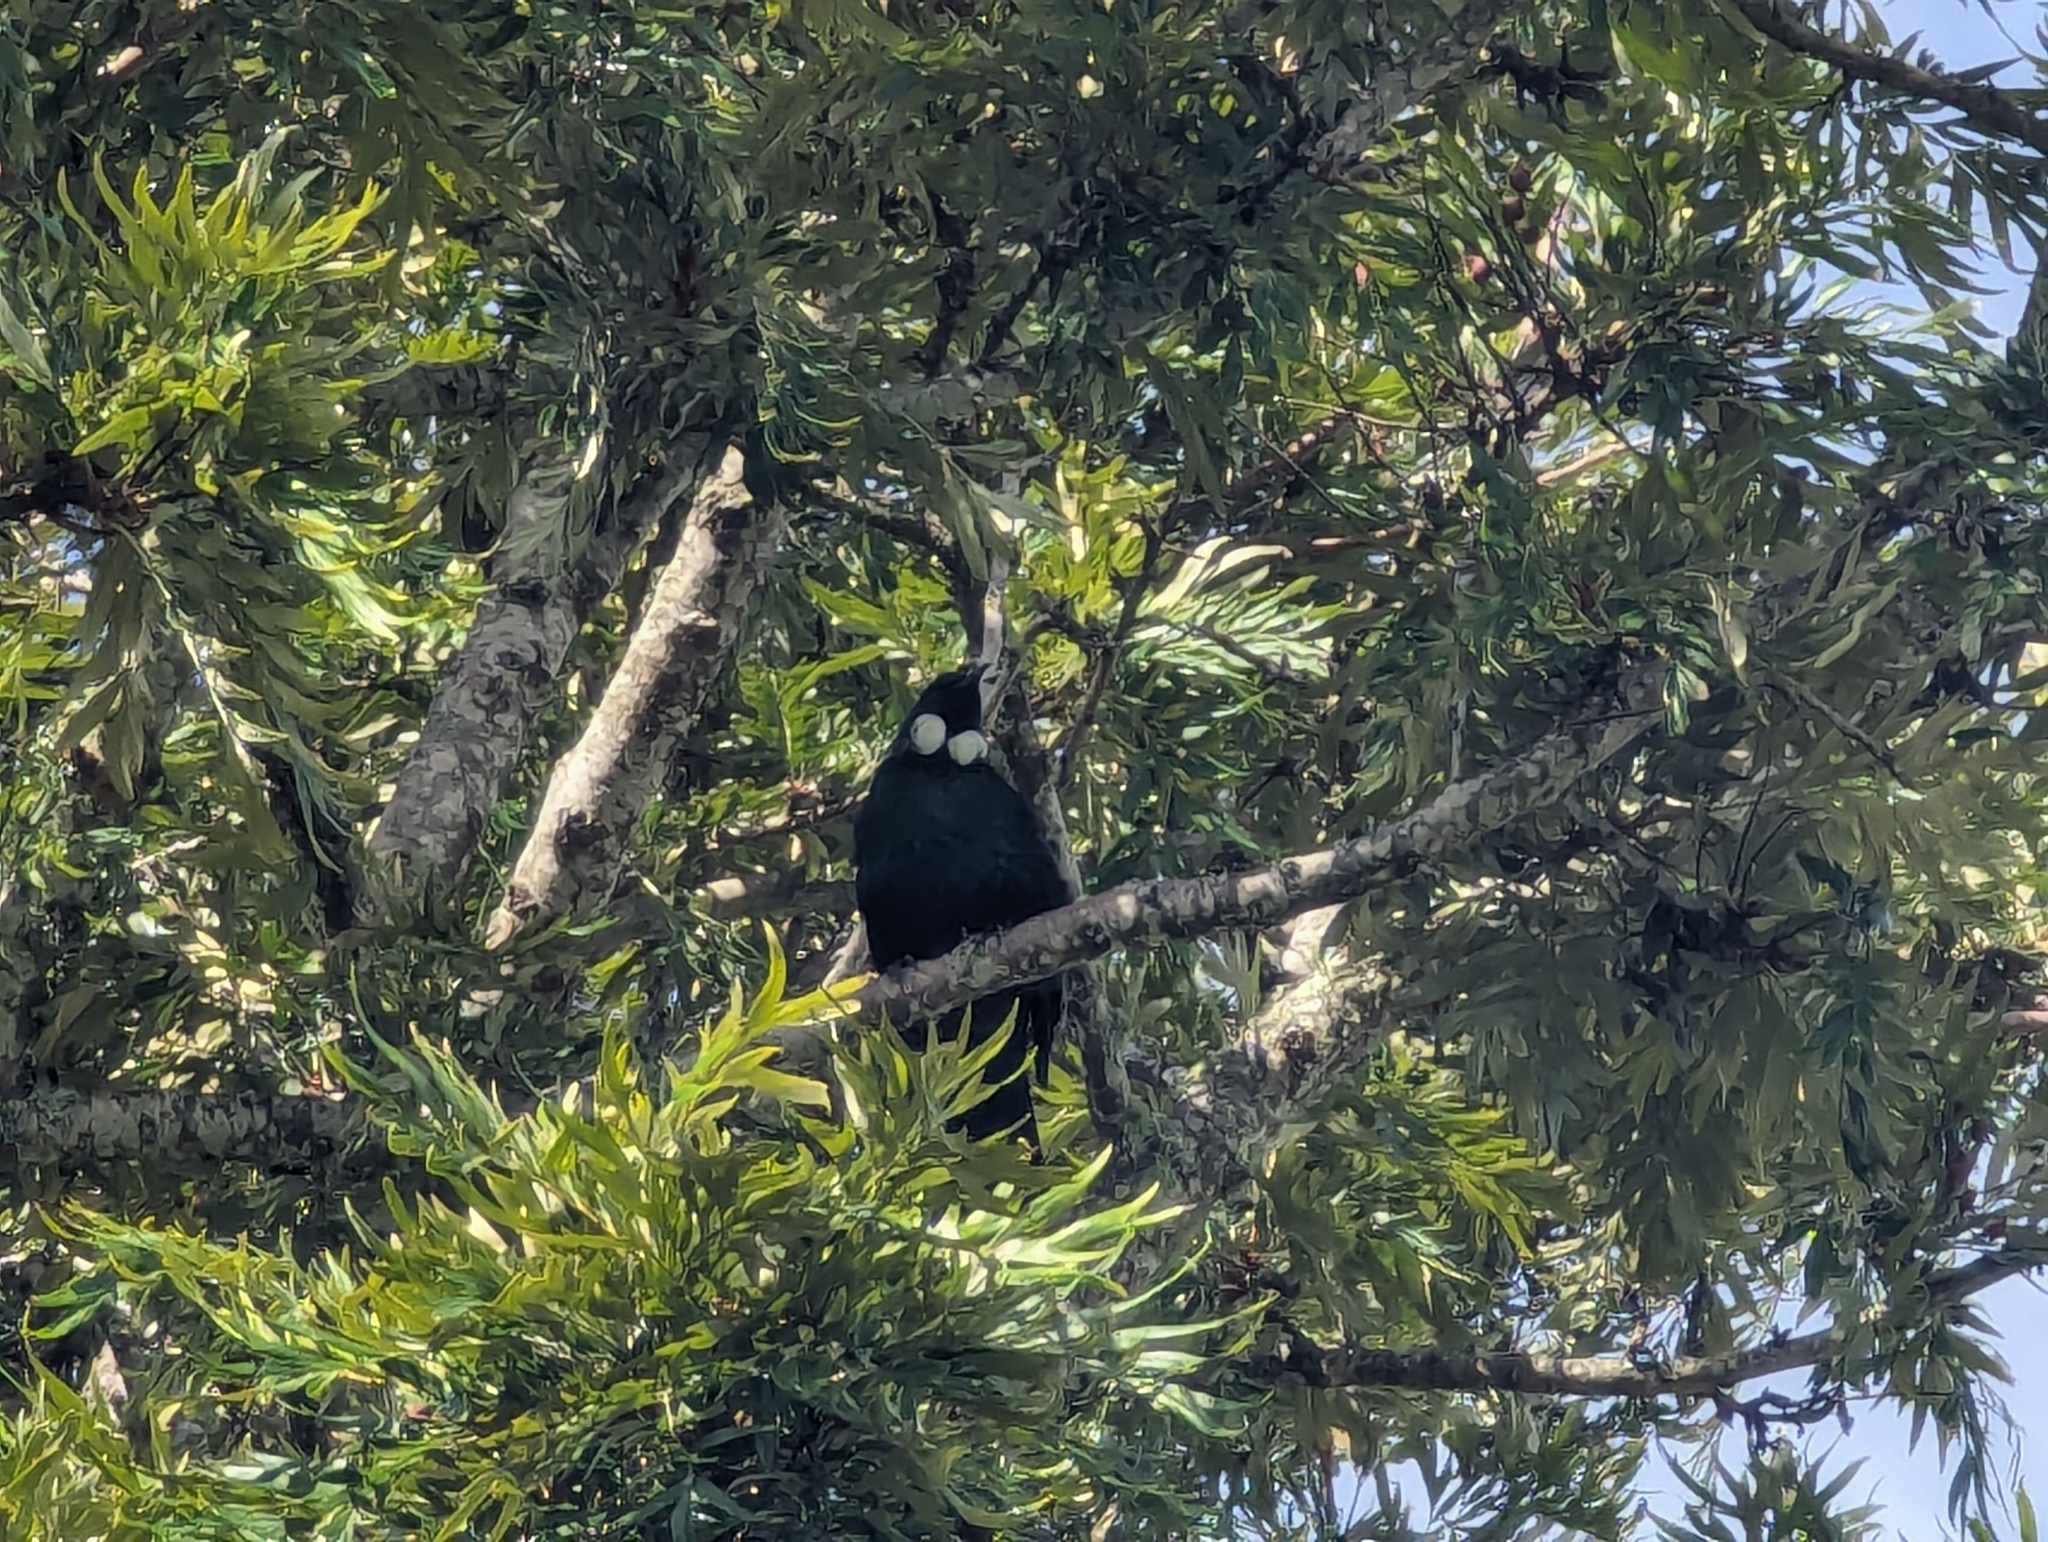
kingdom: Animalia
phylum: Chordata
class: Aves
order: Passeriformes
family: Meliphagidae
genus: Prosthemadera
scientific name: Prosthemadera novaeseelandiae
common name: Tui
